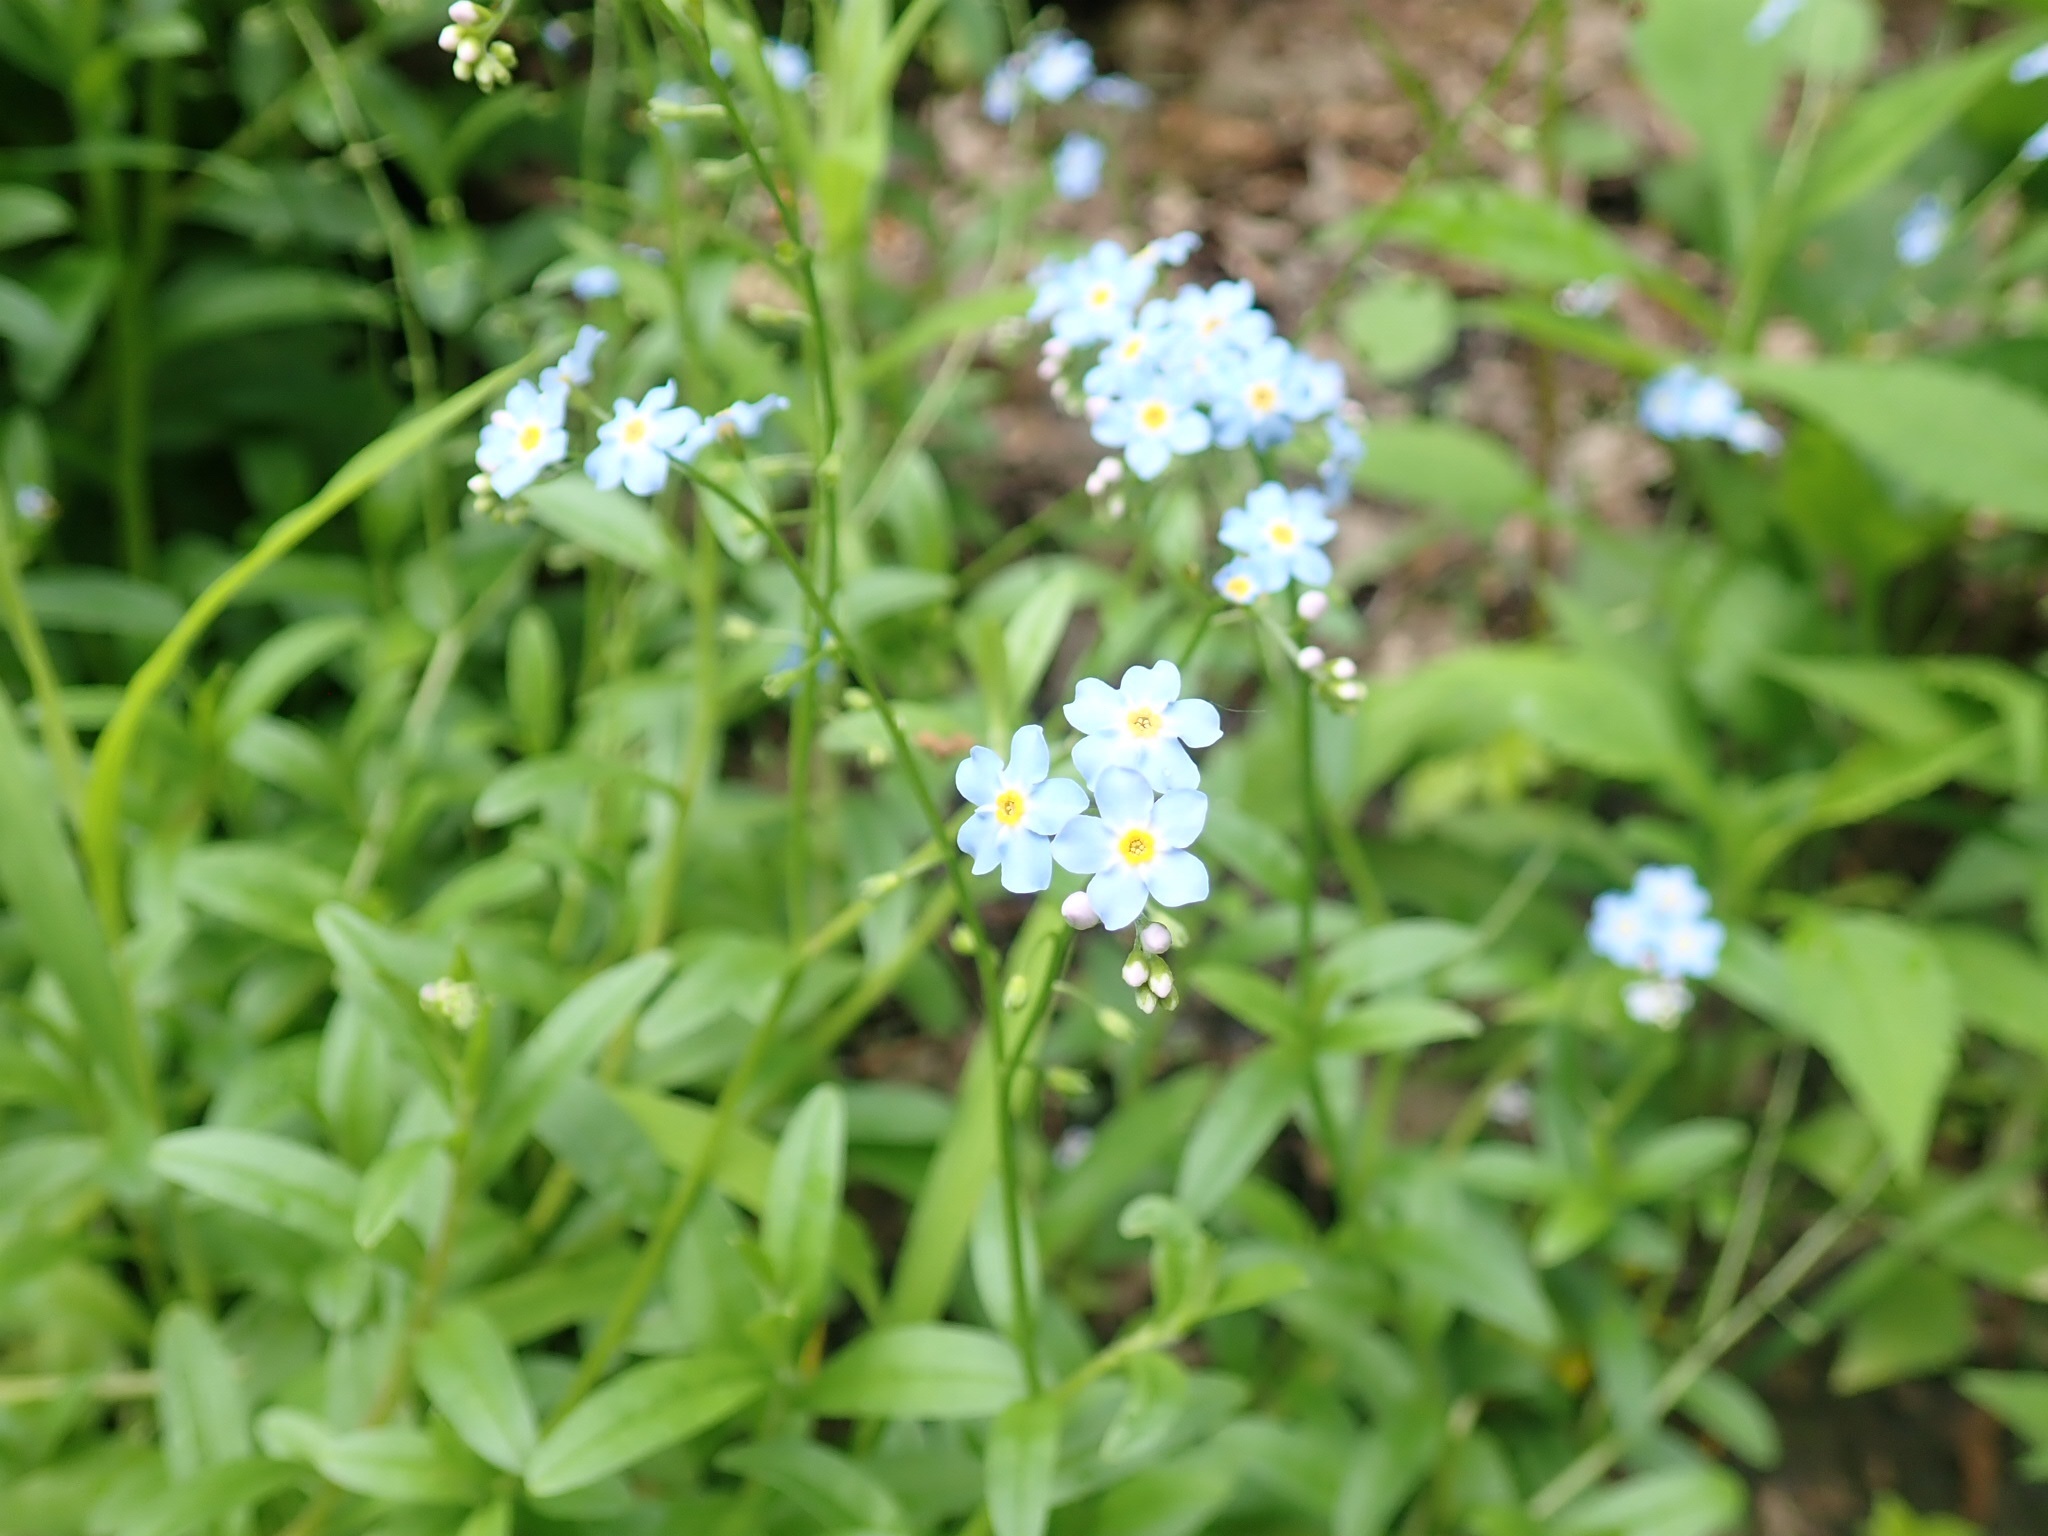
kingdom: Plantae
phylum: Tracheophyta
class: Magnoliopsida
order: Boraginales
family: Boraginaceae
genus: Myosotis
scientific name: Myosotis scorpioides
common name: Water forget-me-not
